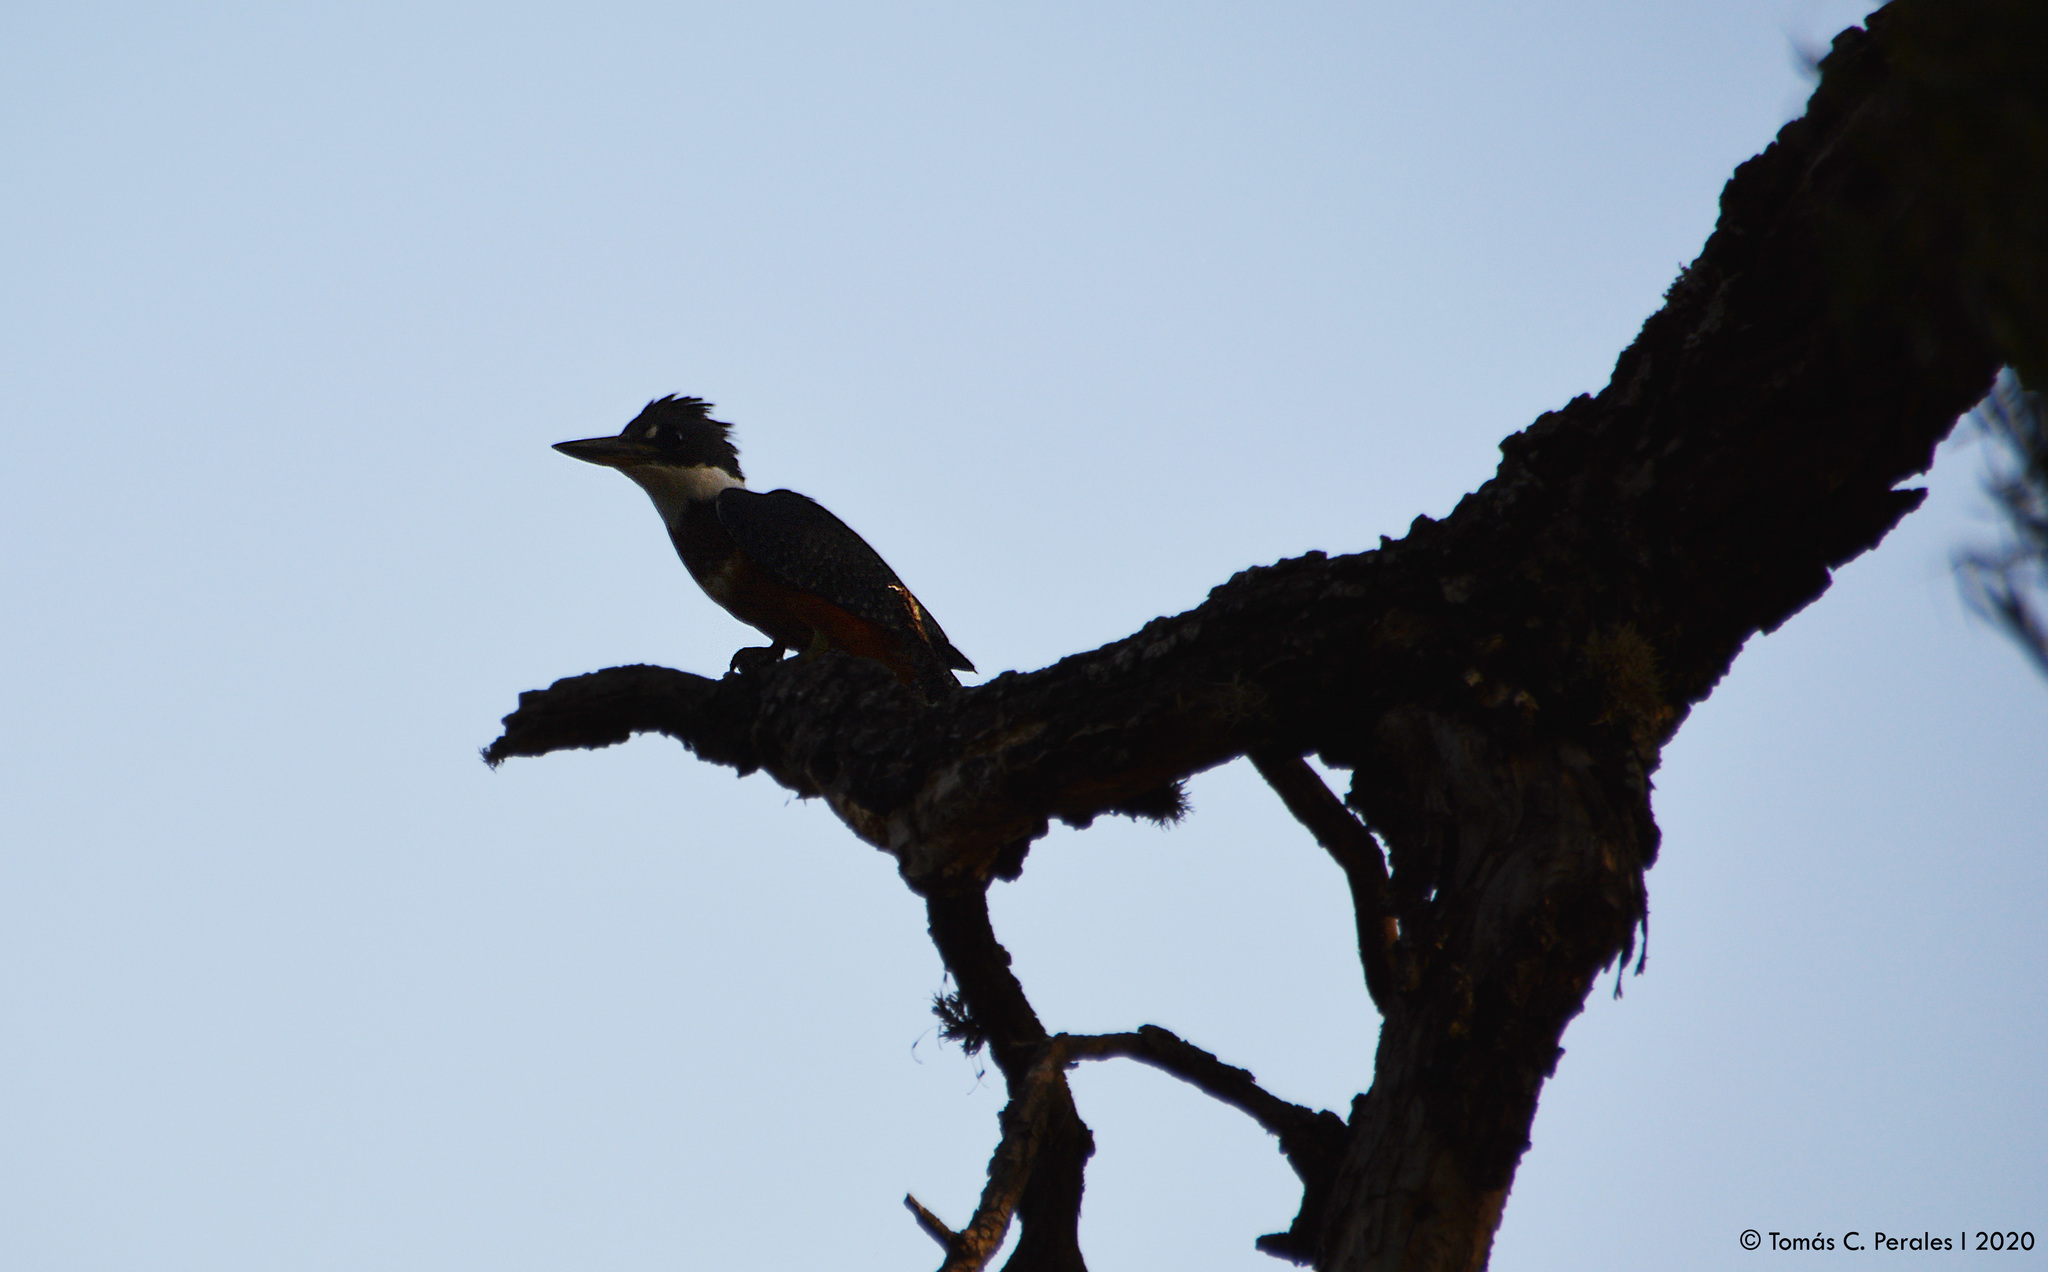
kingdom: Animalia
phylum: Chordata
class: Aves
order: Coraciiformes
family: Alcedinidae
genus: Megaceryle
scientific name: Megaceryle torquata
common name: Ringed kingfisher
